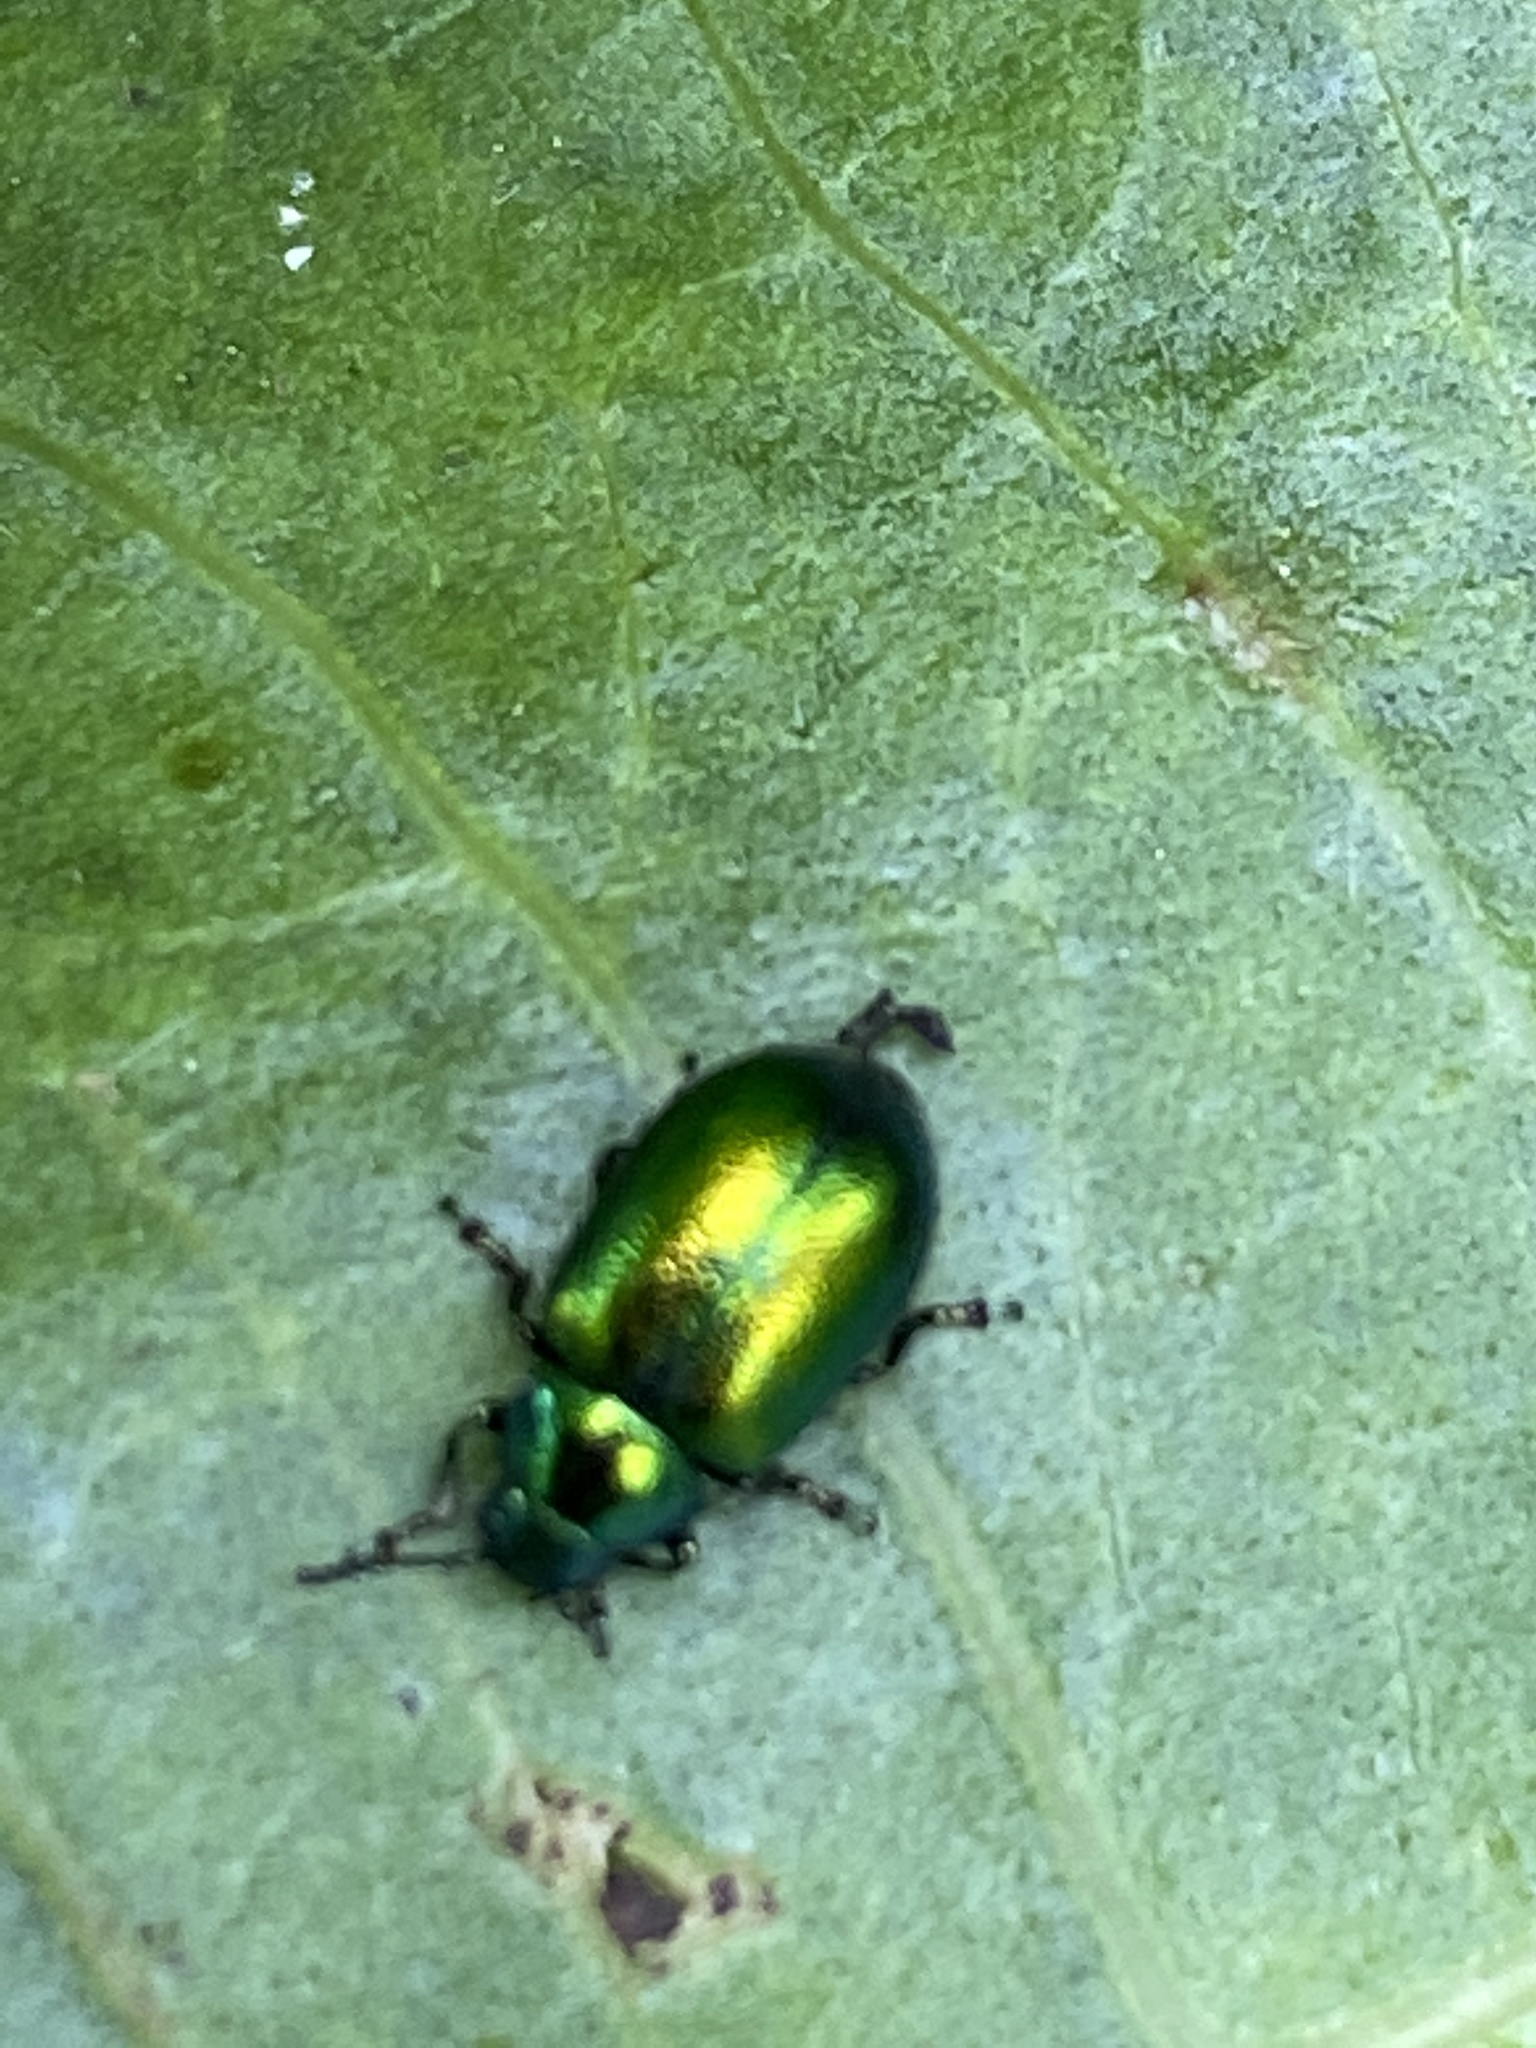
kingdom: Animalia
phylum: Arthropoda
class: Insecta
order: Coleoptera
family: Chrysomelidae
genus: Gastrophysa
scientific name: Gastrophysa viridula
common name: Green dock beetle
